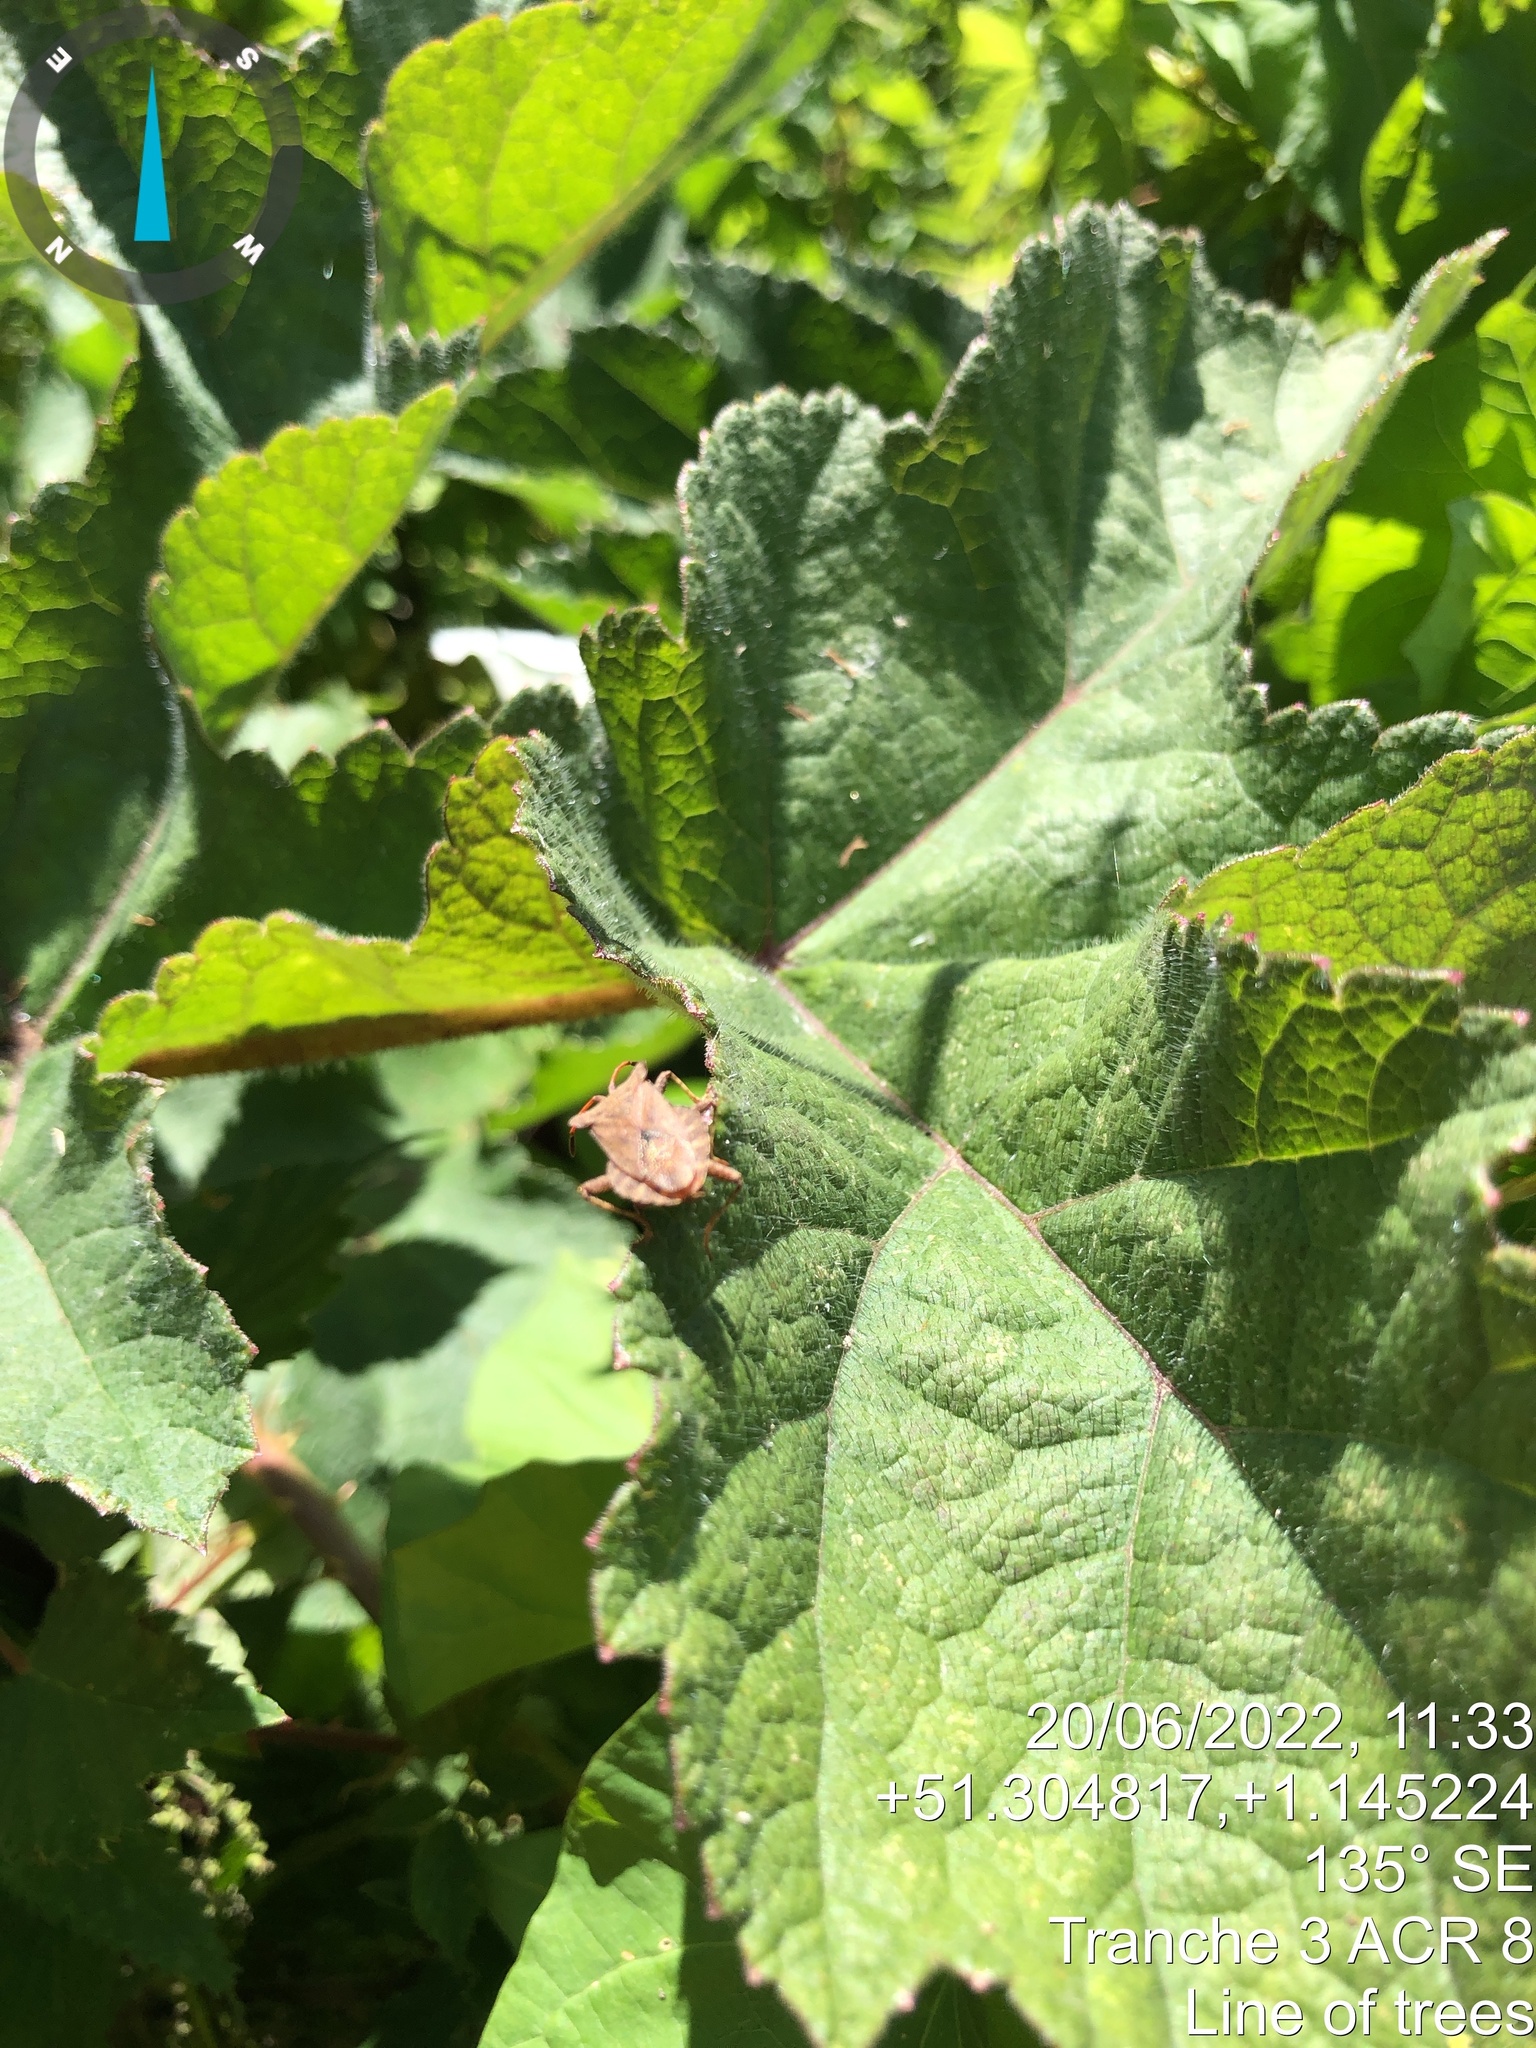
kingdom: Animalia
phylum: Arthropoda
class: Insecta
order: Hemiptera
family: Coreidae
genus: Coreus
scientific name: Coreus marginatus
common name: Dock bug
